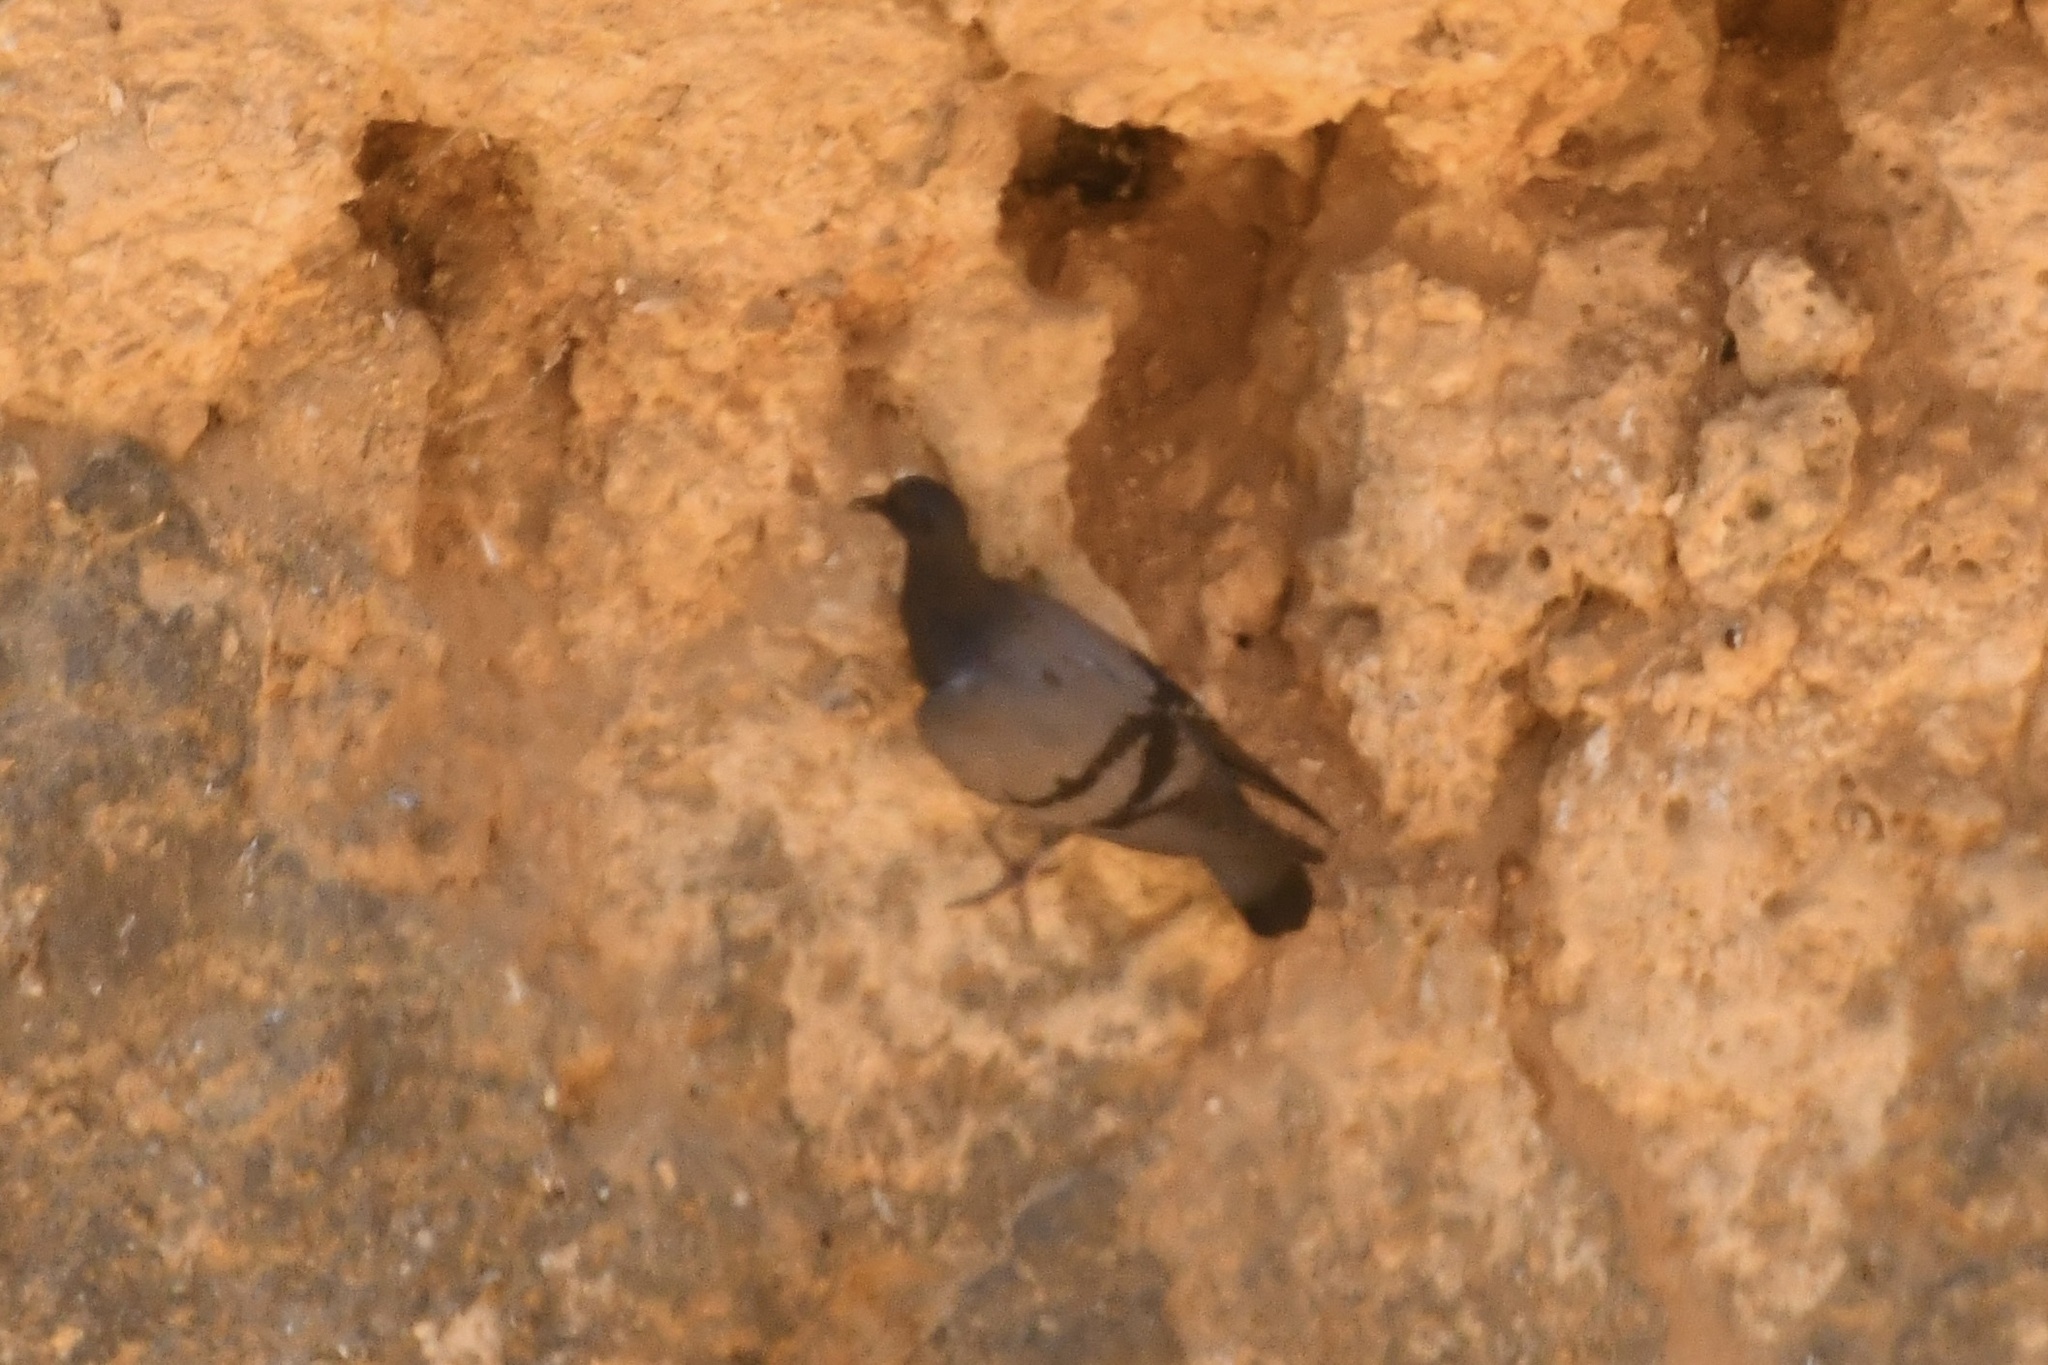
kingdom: Animalia
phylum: Chordata
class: Aves
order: Columbiformes
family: Columbidae
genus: Columba
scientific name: Columba livia
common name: Rock pigeon
